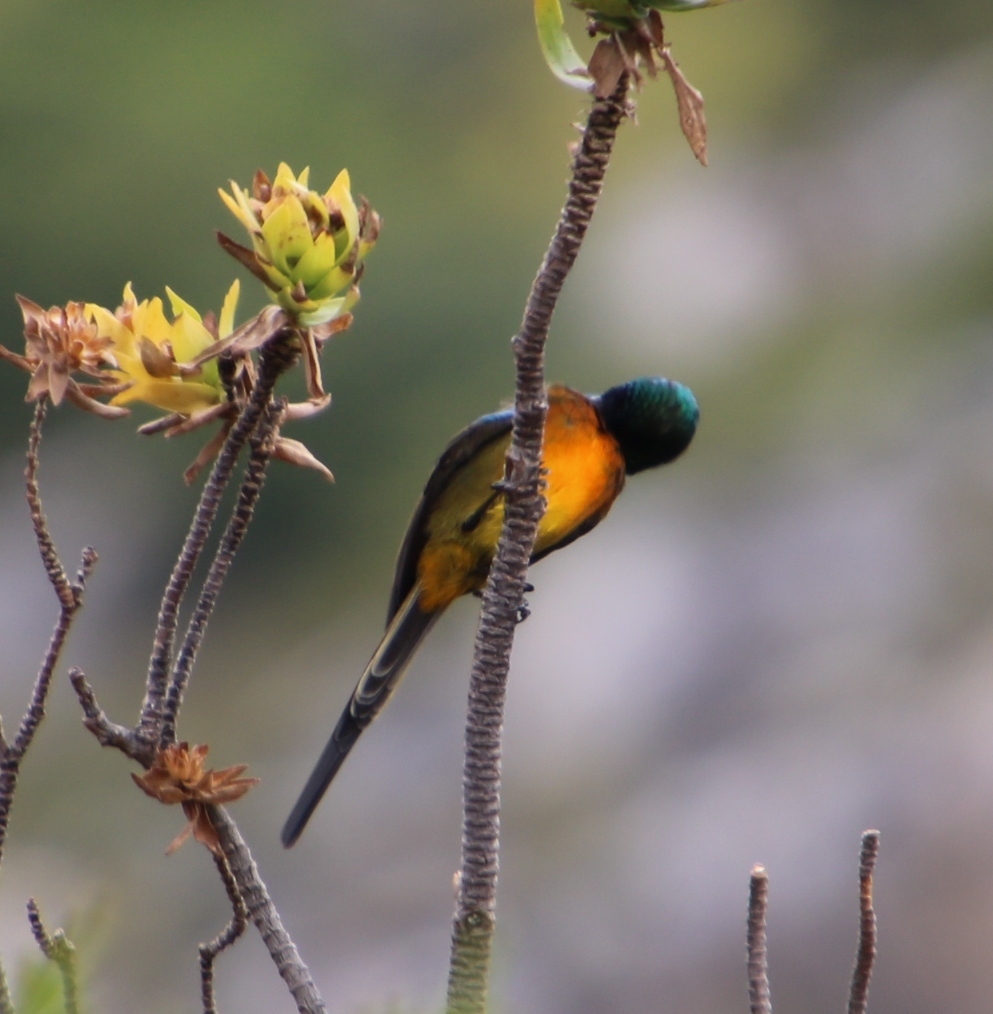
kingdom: Animalia
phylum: Chordata
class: Aves
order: Passeriformes
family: Nectariniidae
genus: Anthobaphes
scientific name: Anthobaphes violacea
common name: Orange-breasted sunbird
